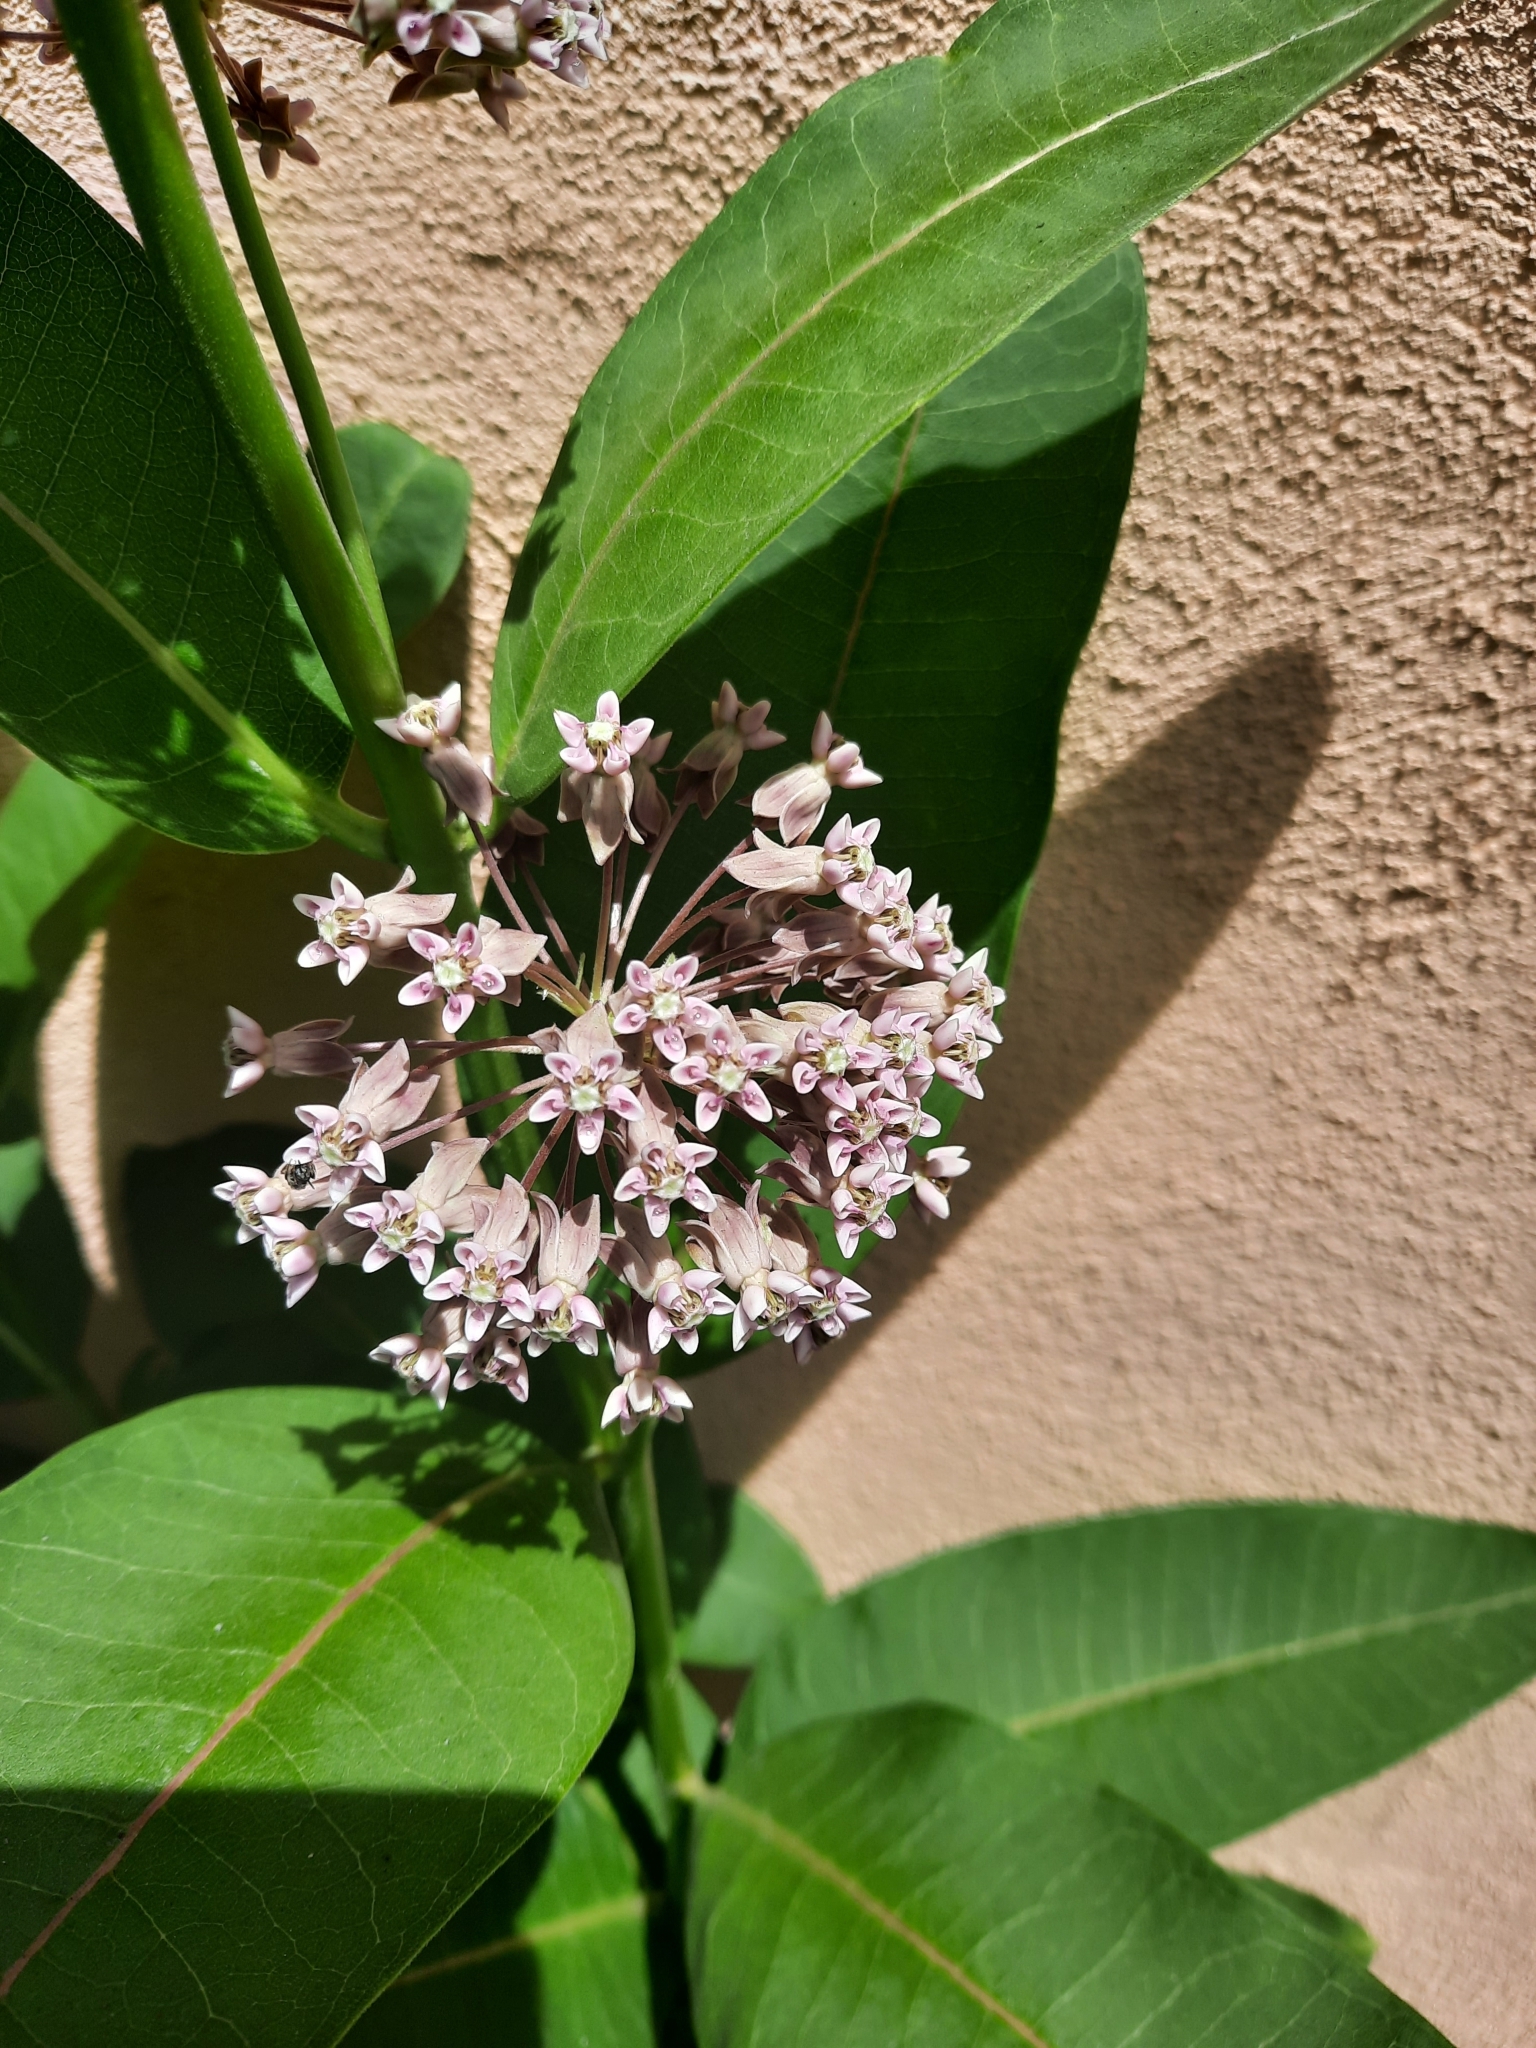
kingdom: Plantae
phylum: Tracheophyta
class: Magnoliopsida
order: Gentianales
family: Apocynaceae
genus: Asclepias
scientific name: Asclepias syriaca
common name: Common milkweed
